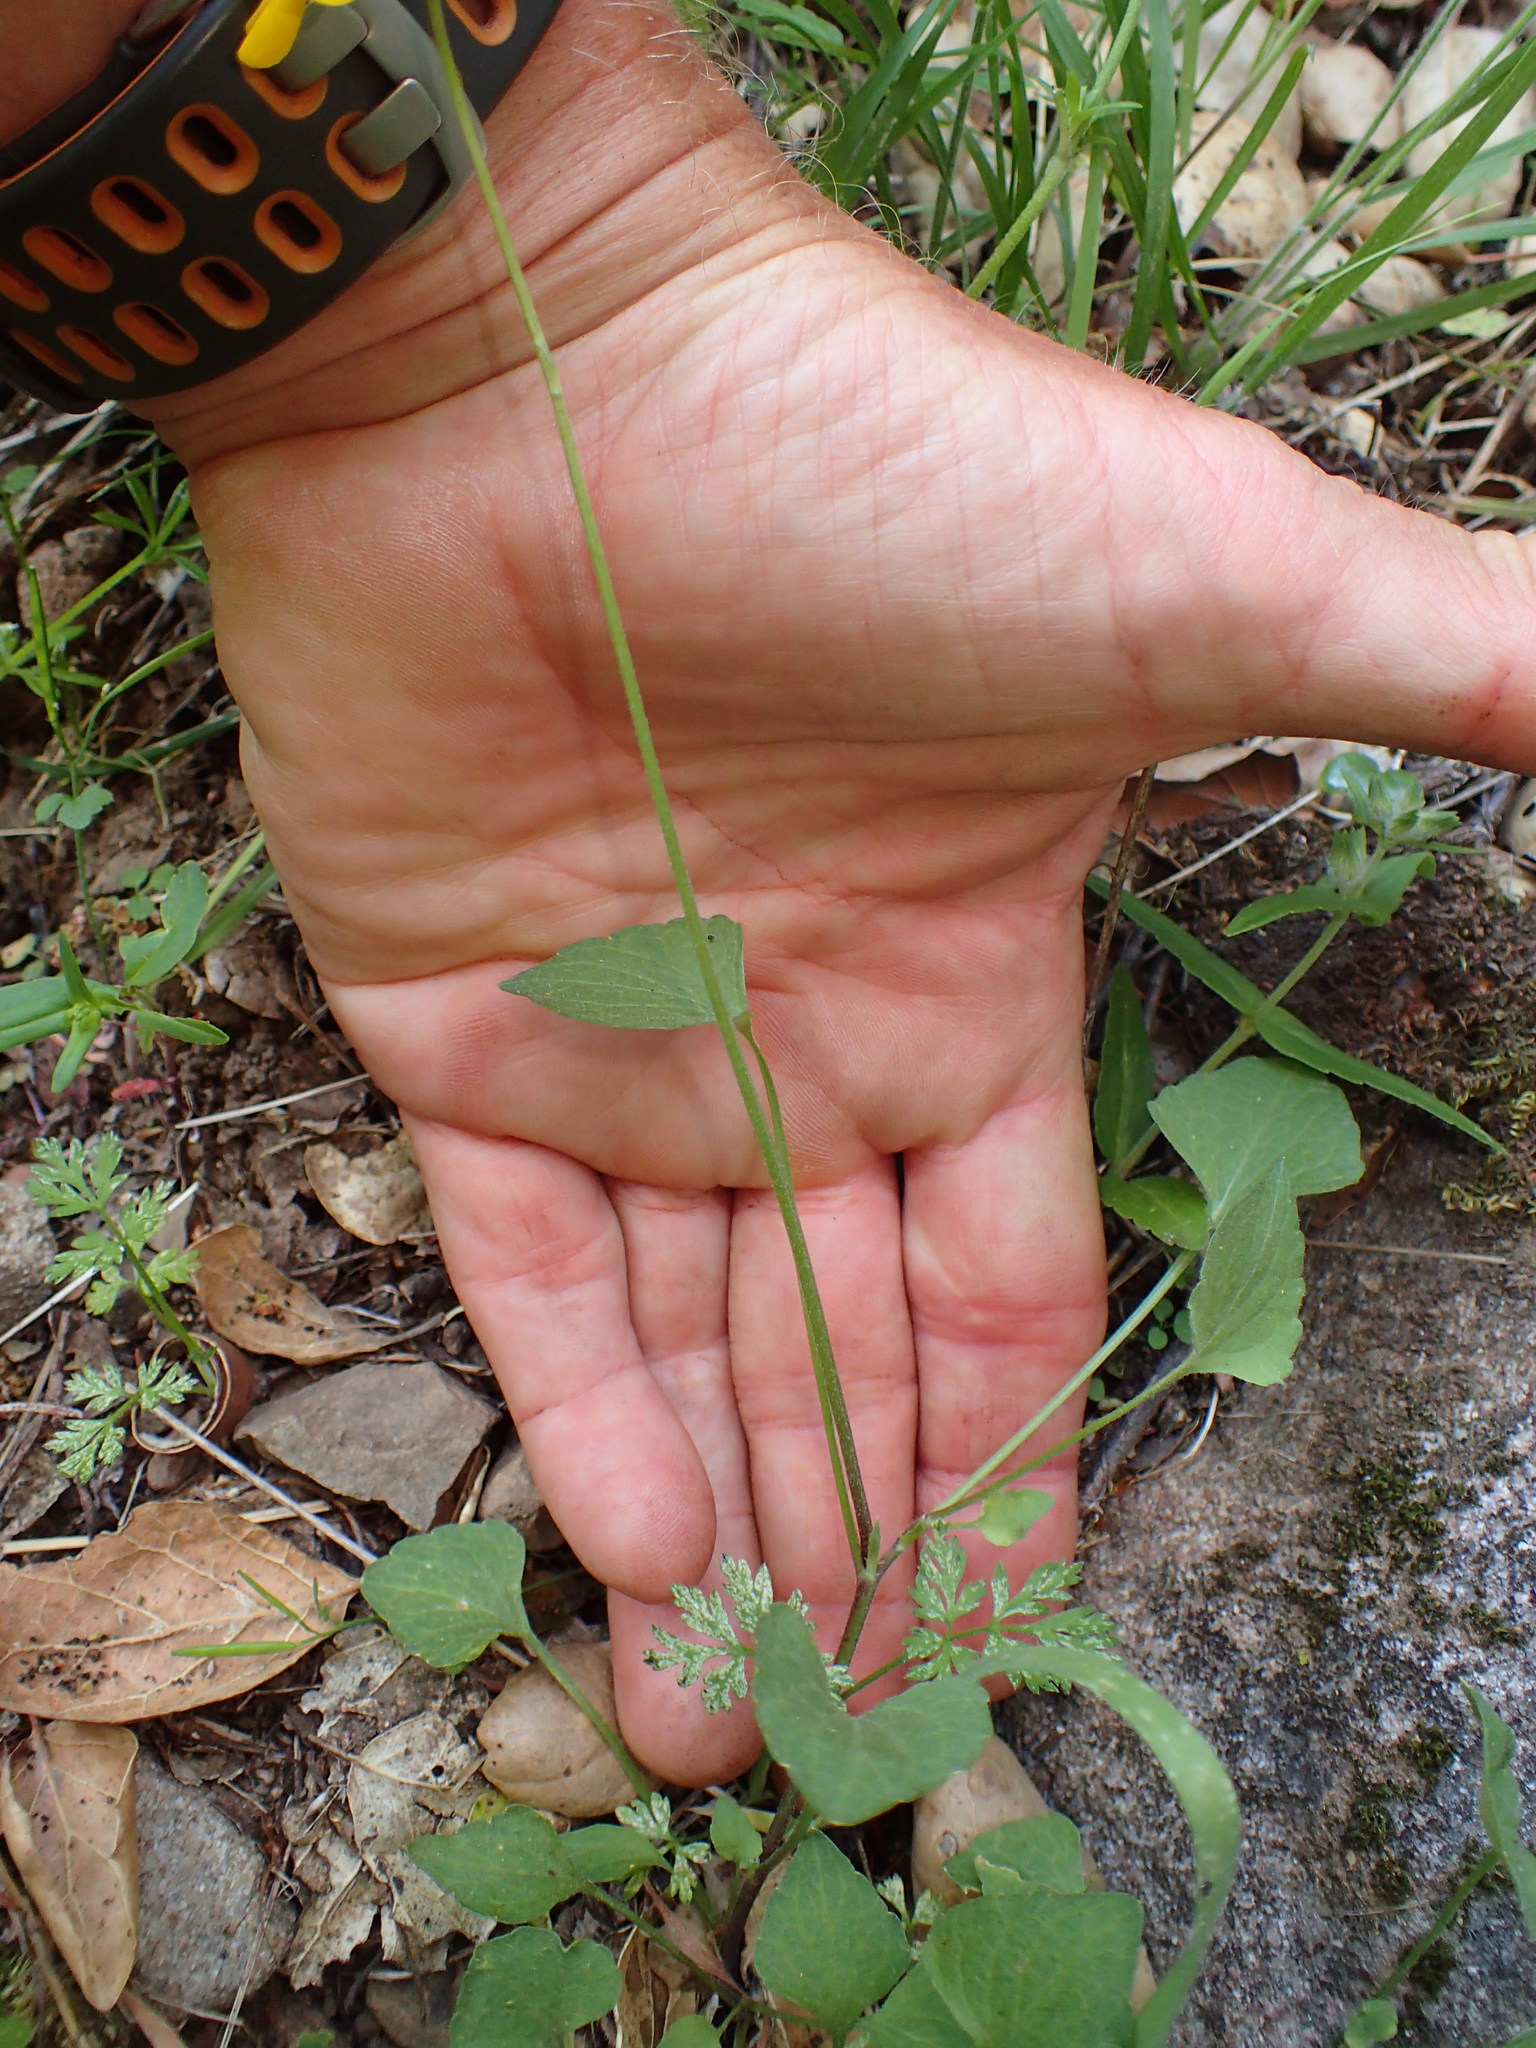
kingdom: Plantae
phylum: Tracheophyta
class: Magnoliopsida
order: Malpighiales
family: Violaceae
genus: Viola
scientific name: Viola pedunculata
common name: California golden violet
